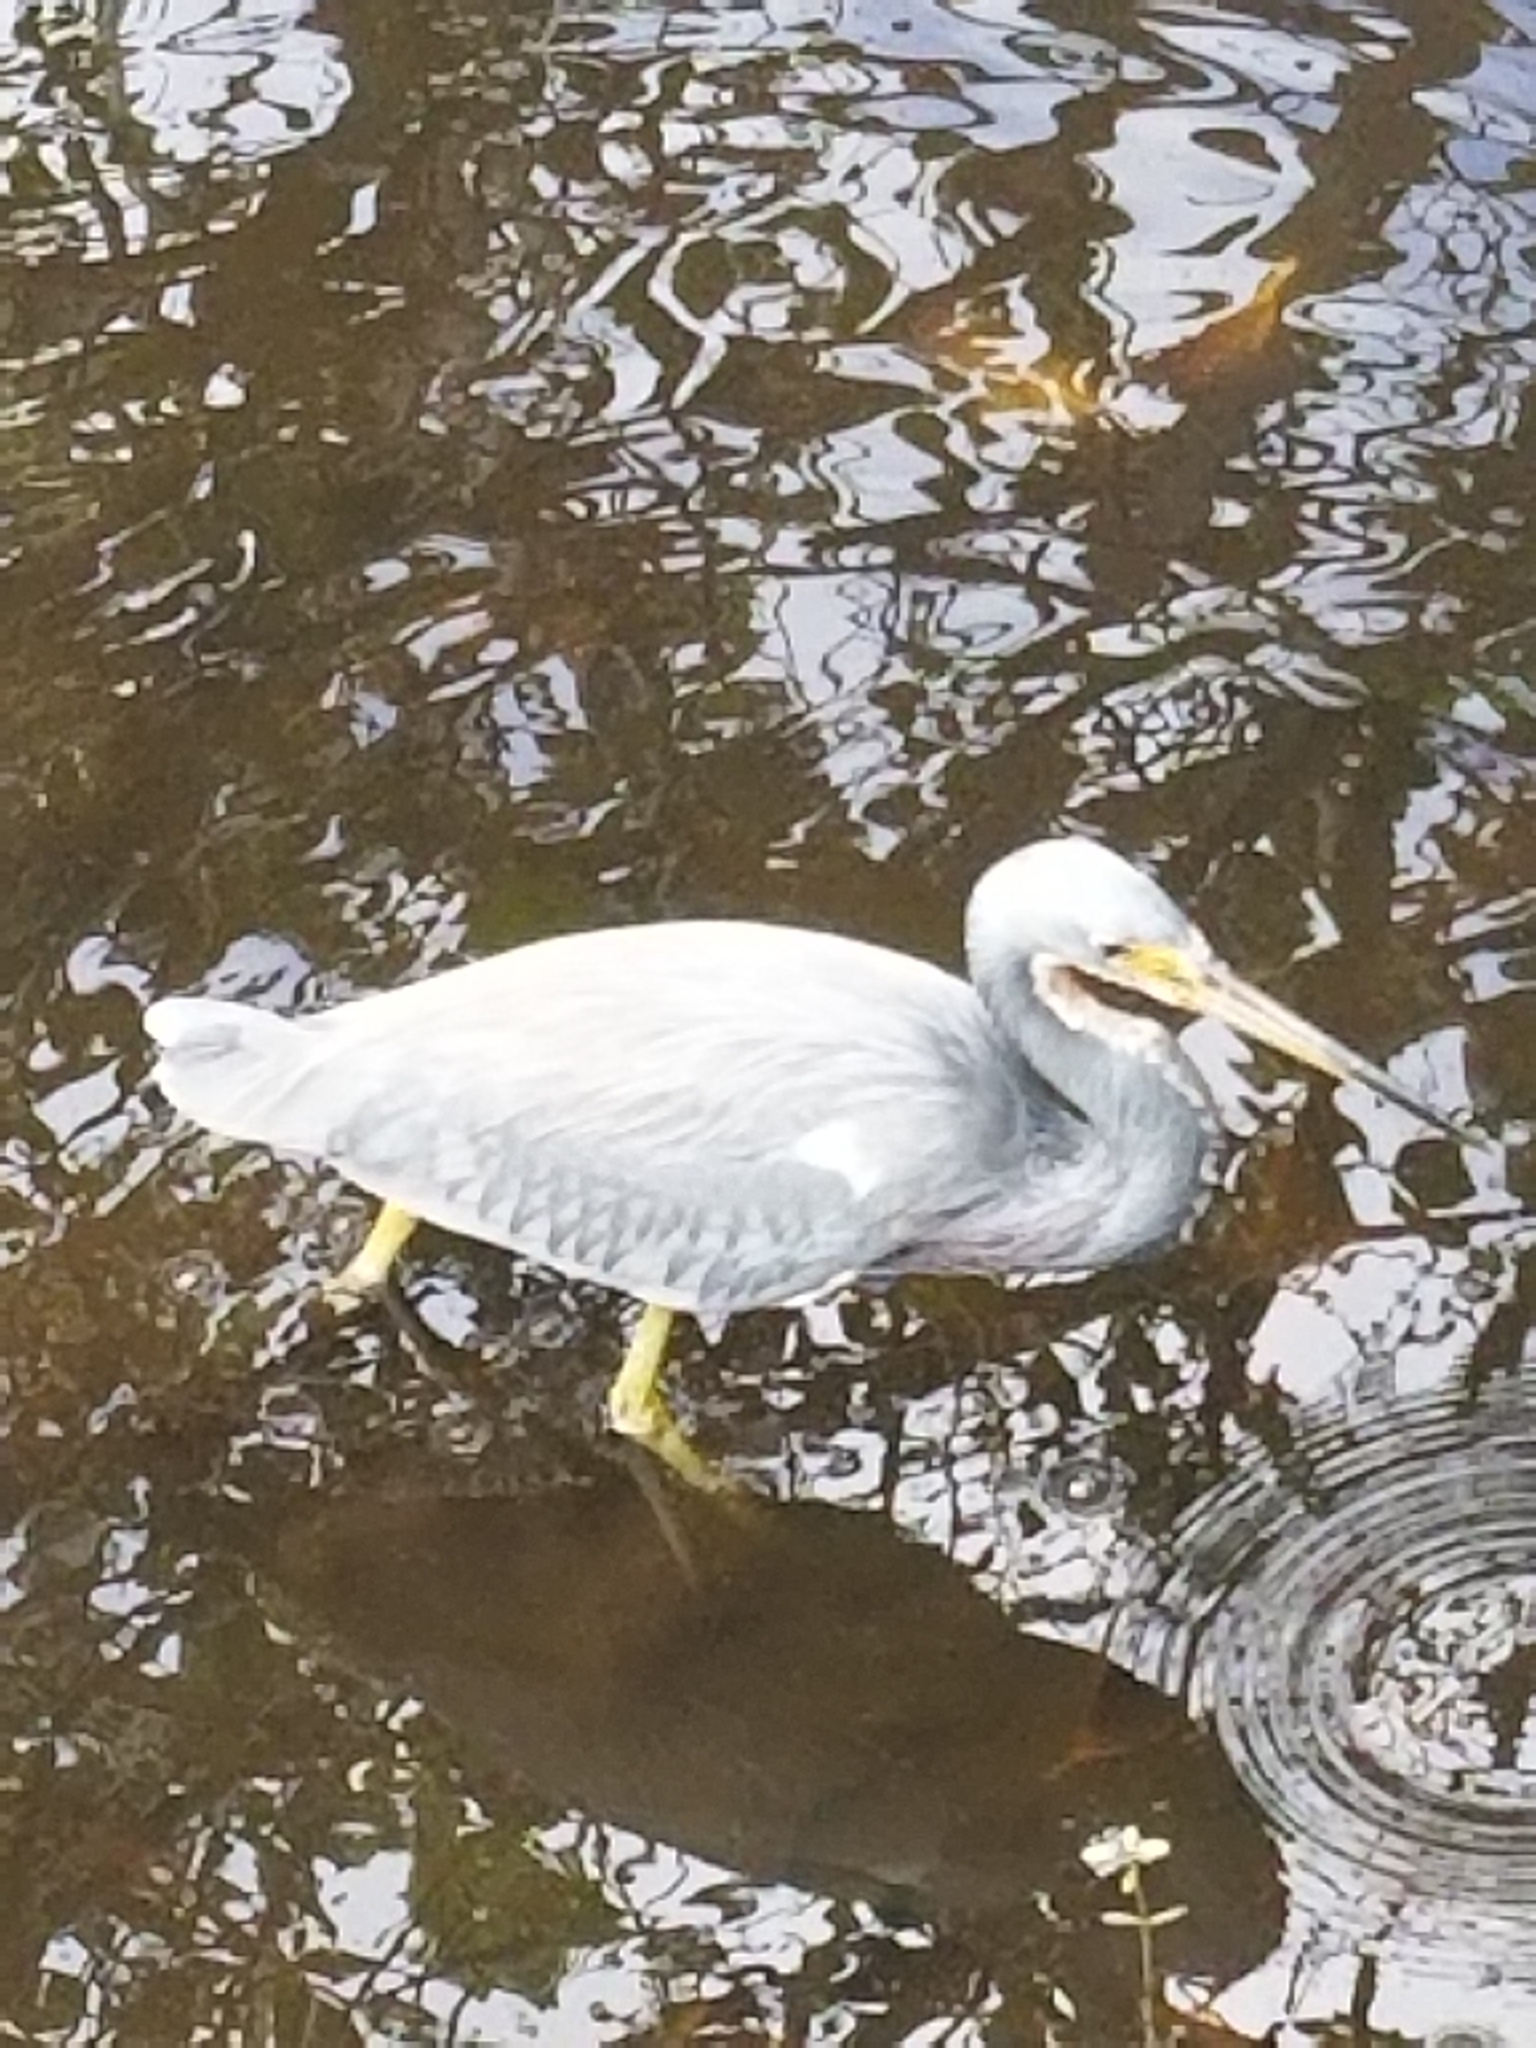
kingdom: Animalia
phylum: Chordata
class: Aves
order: Pelecaniformes
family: Ardeidae
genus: Egretta
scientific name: Egretta tricolor
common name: Tricolored heron
